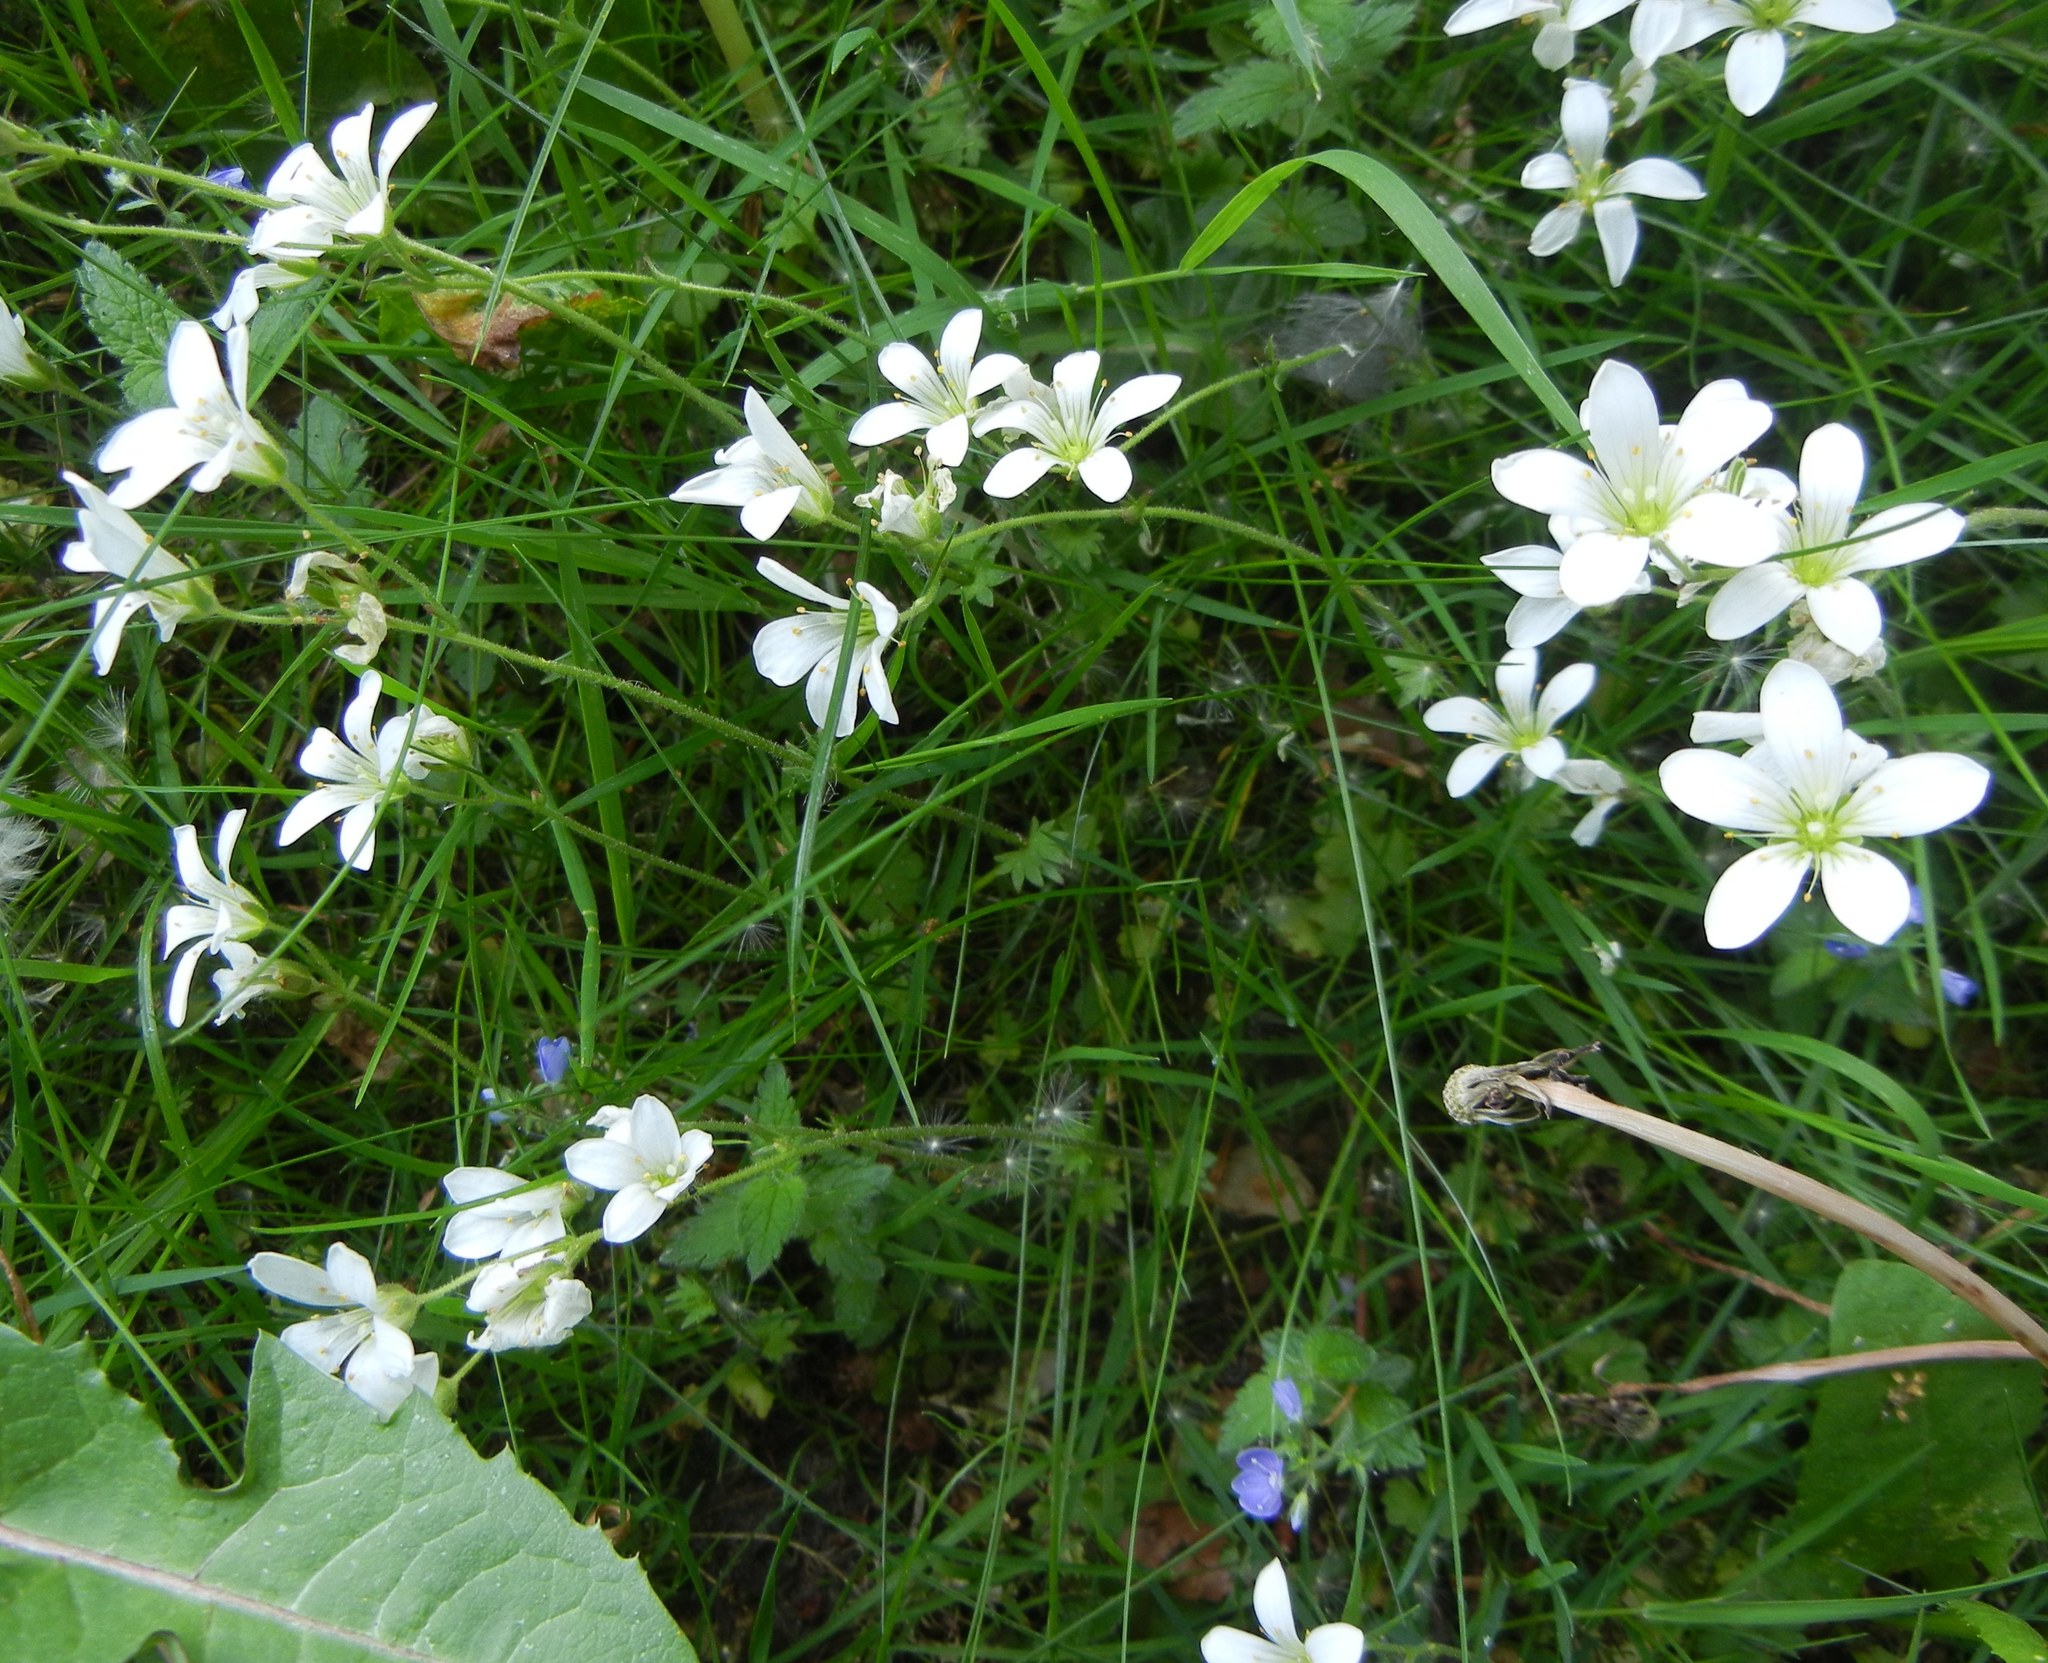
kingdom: Plantae
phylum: Tracheophyta
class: Magnoliopsida
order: Saxifragales
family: Saxifragaceae
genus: Saxifraga
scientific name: Saxifraga granulata
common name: Meadow saxifrage
